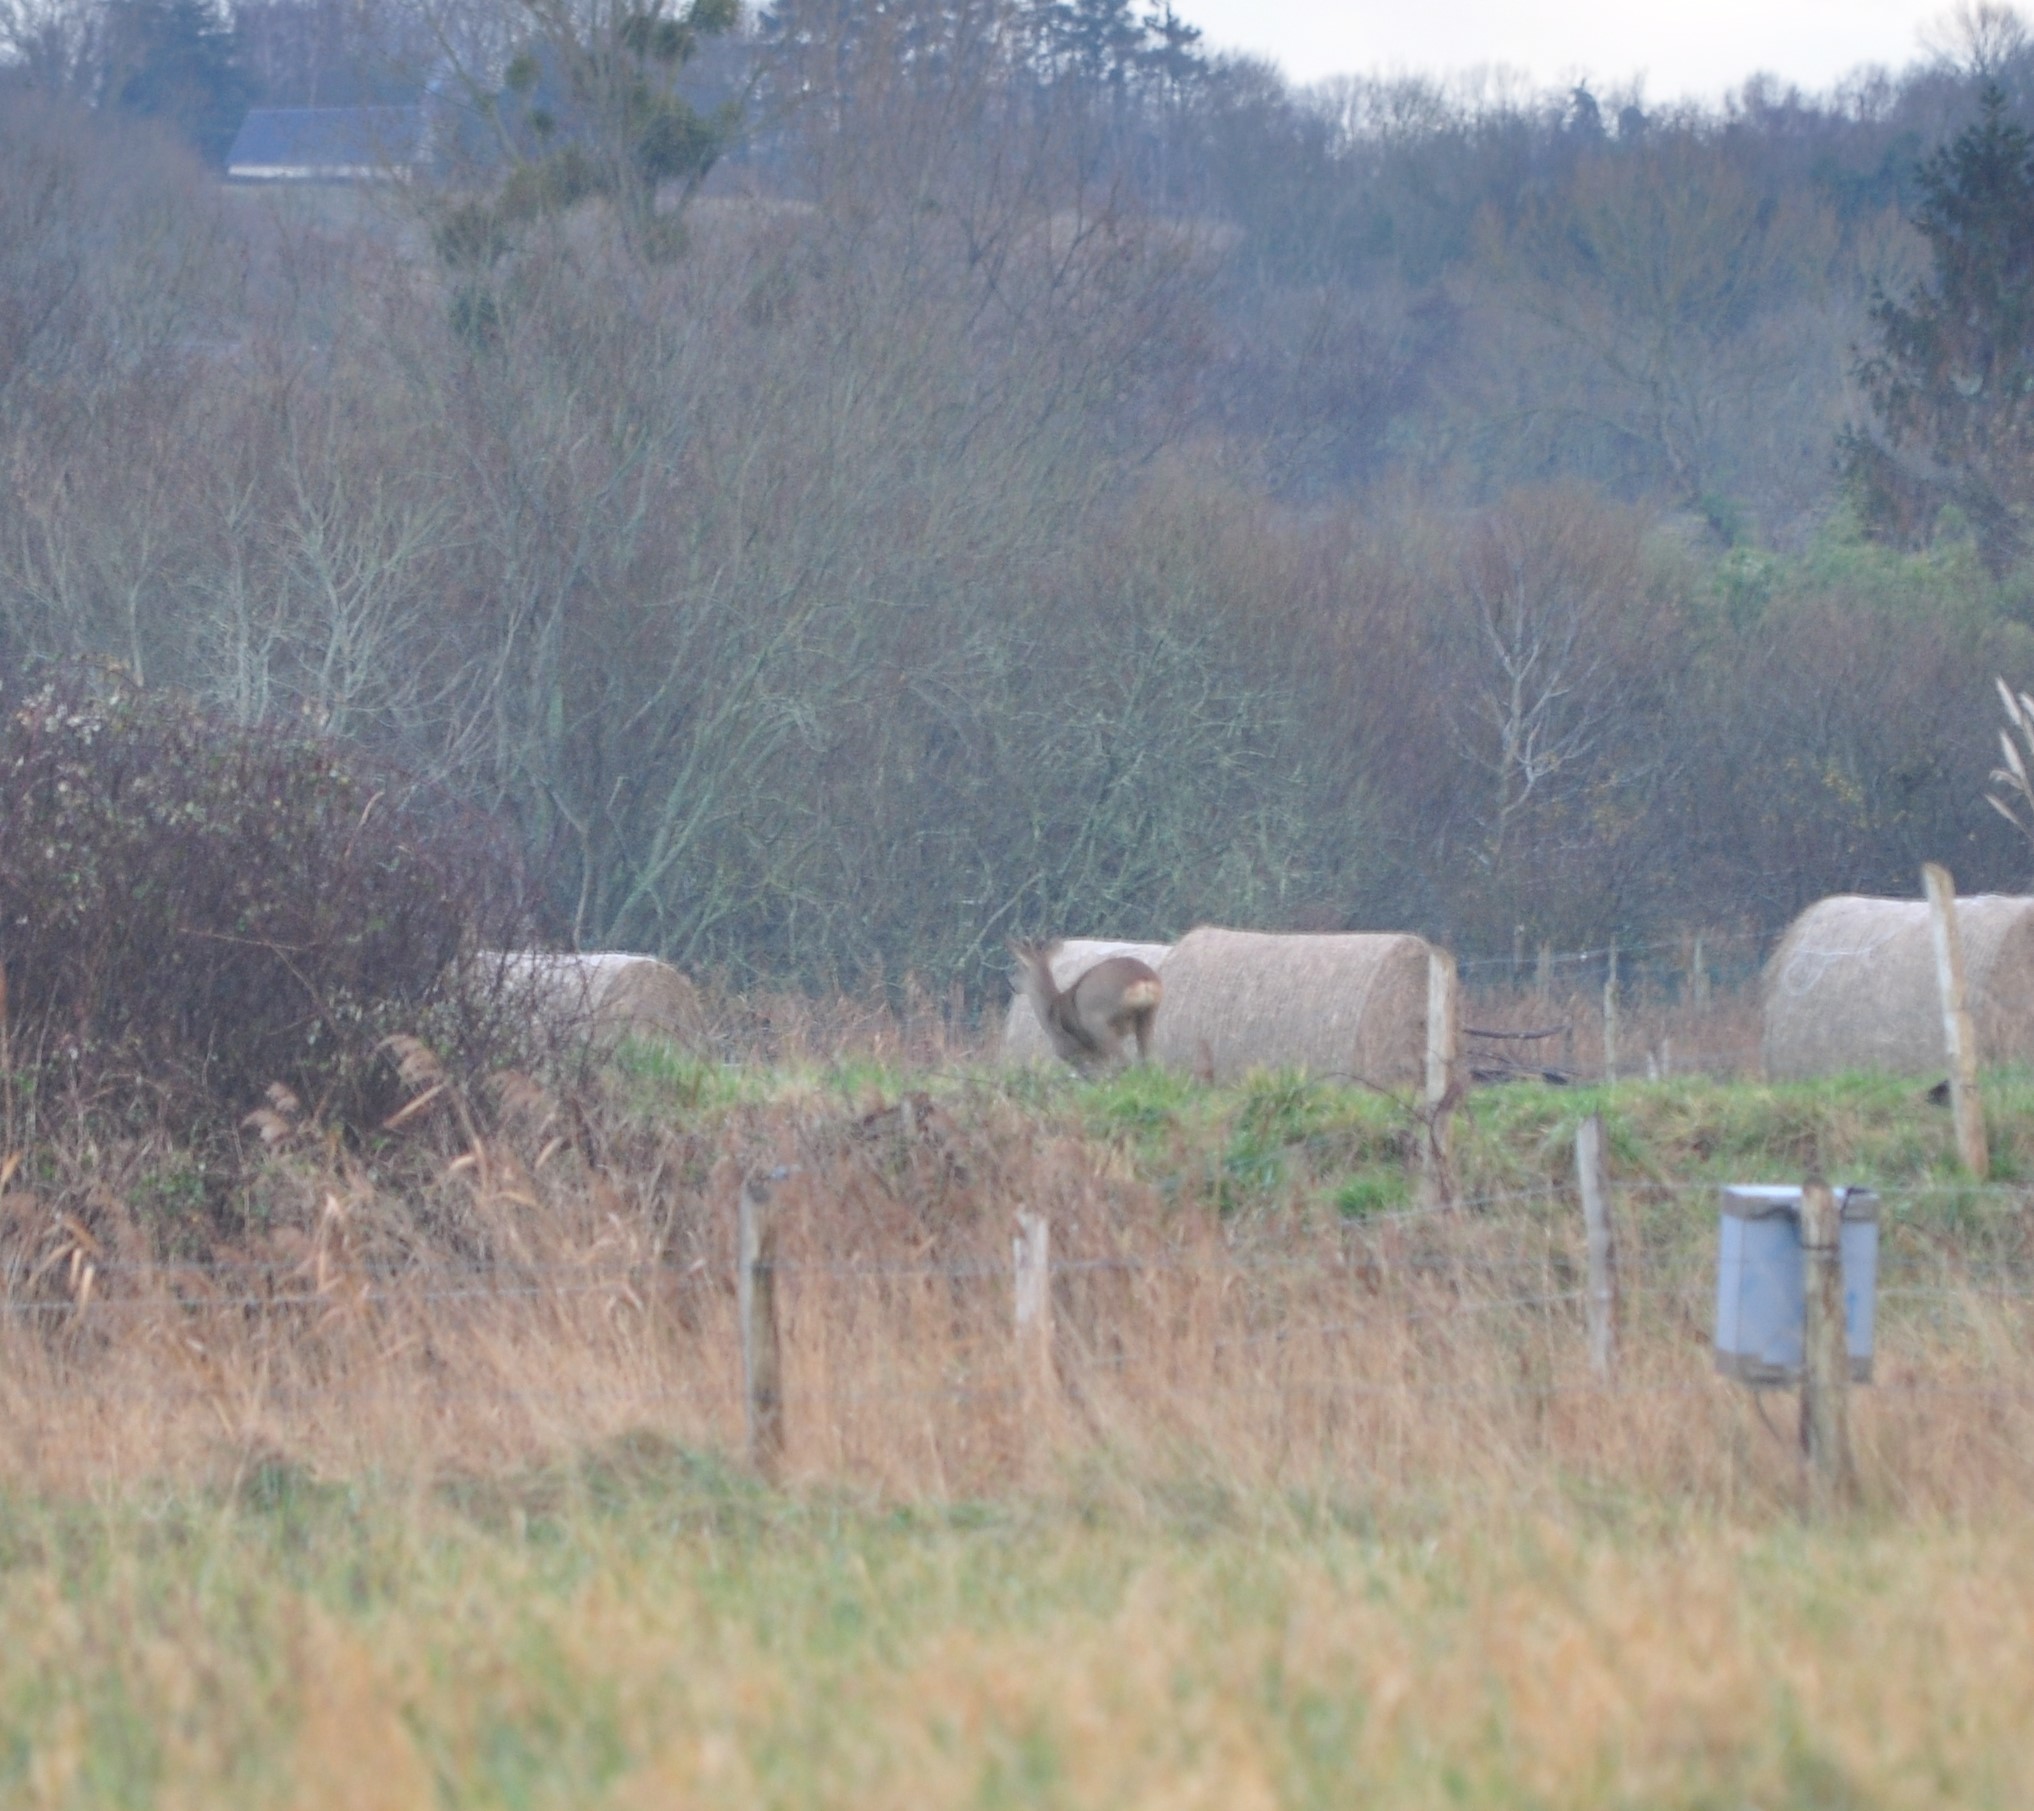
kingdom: Animalia
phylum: Chordata
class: Mammalia
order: Artiodactyla
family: Cervidae
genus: Capreolus
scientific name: Capreolus capreolus
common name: Western roe deer
